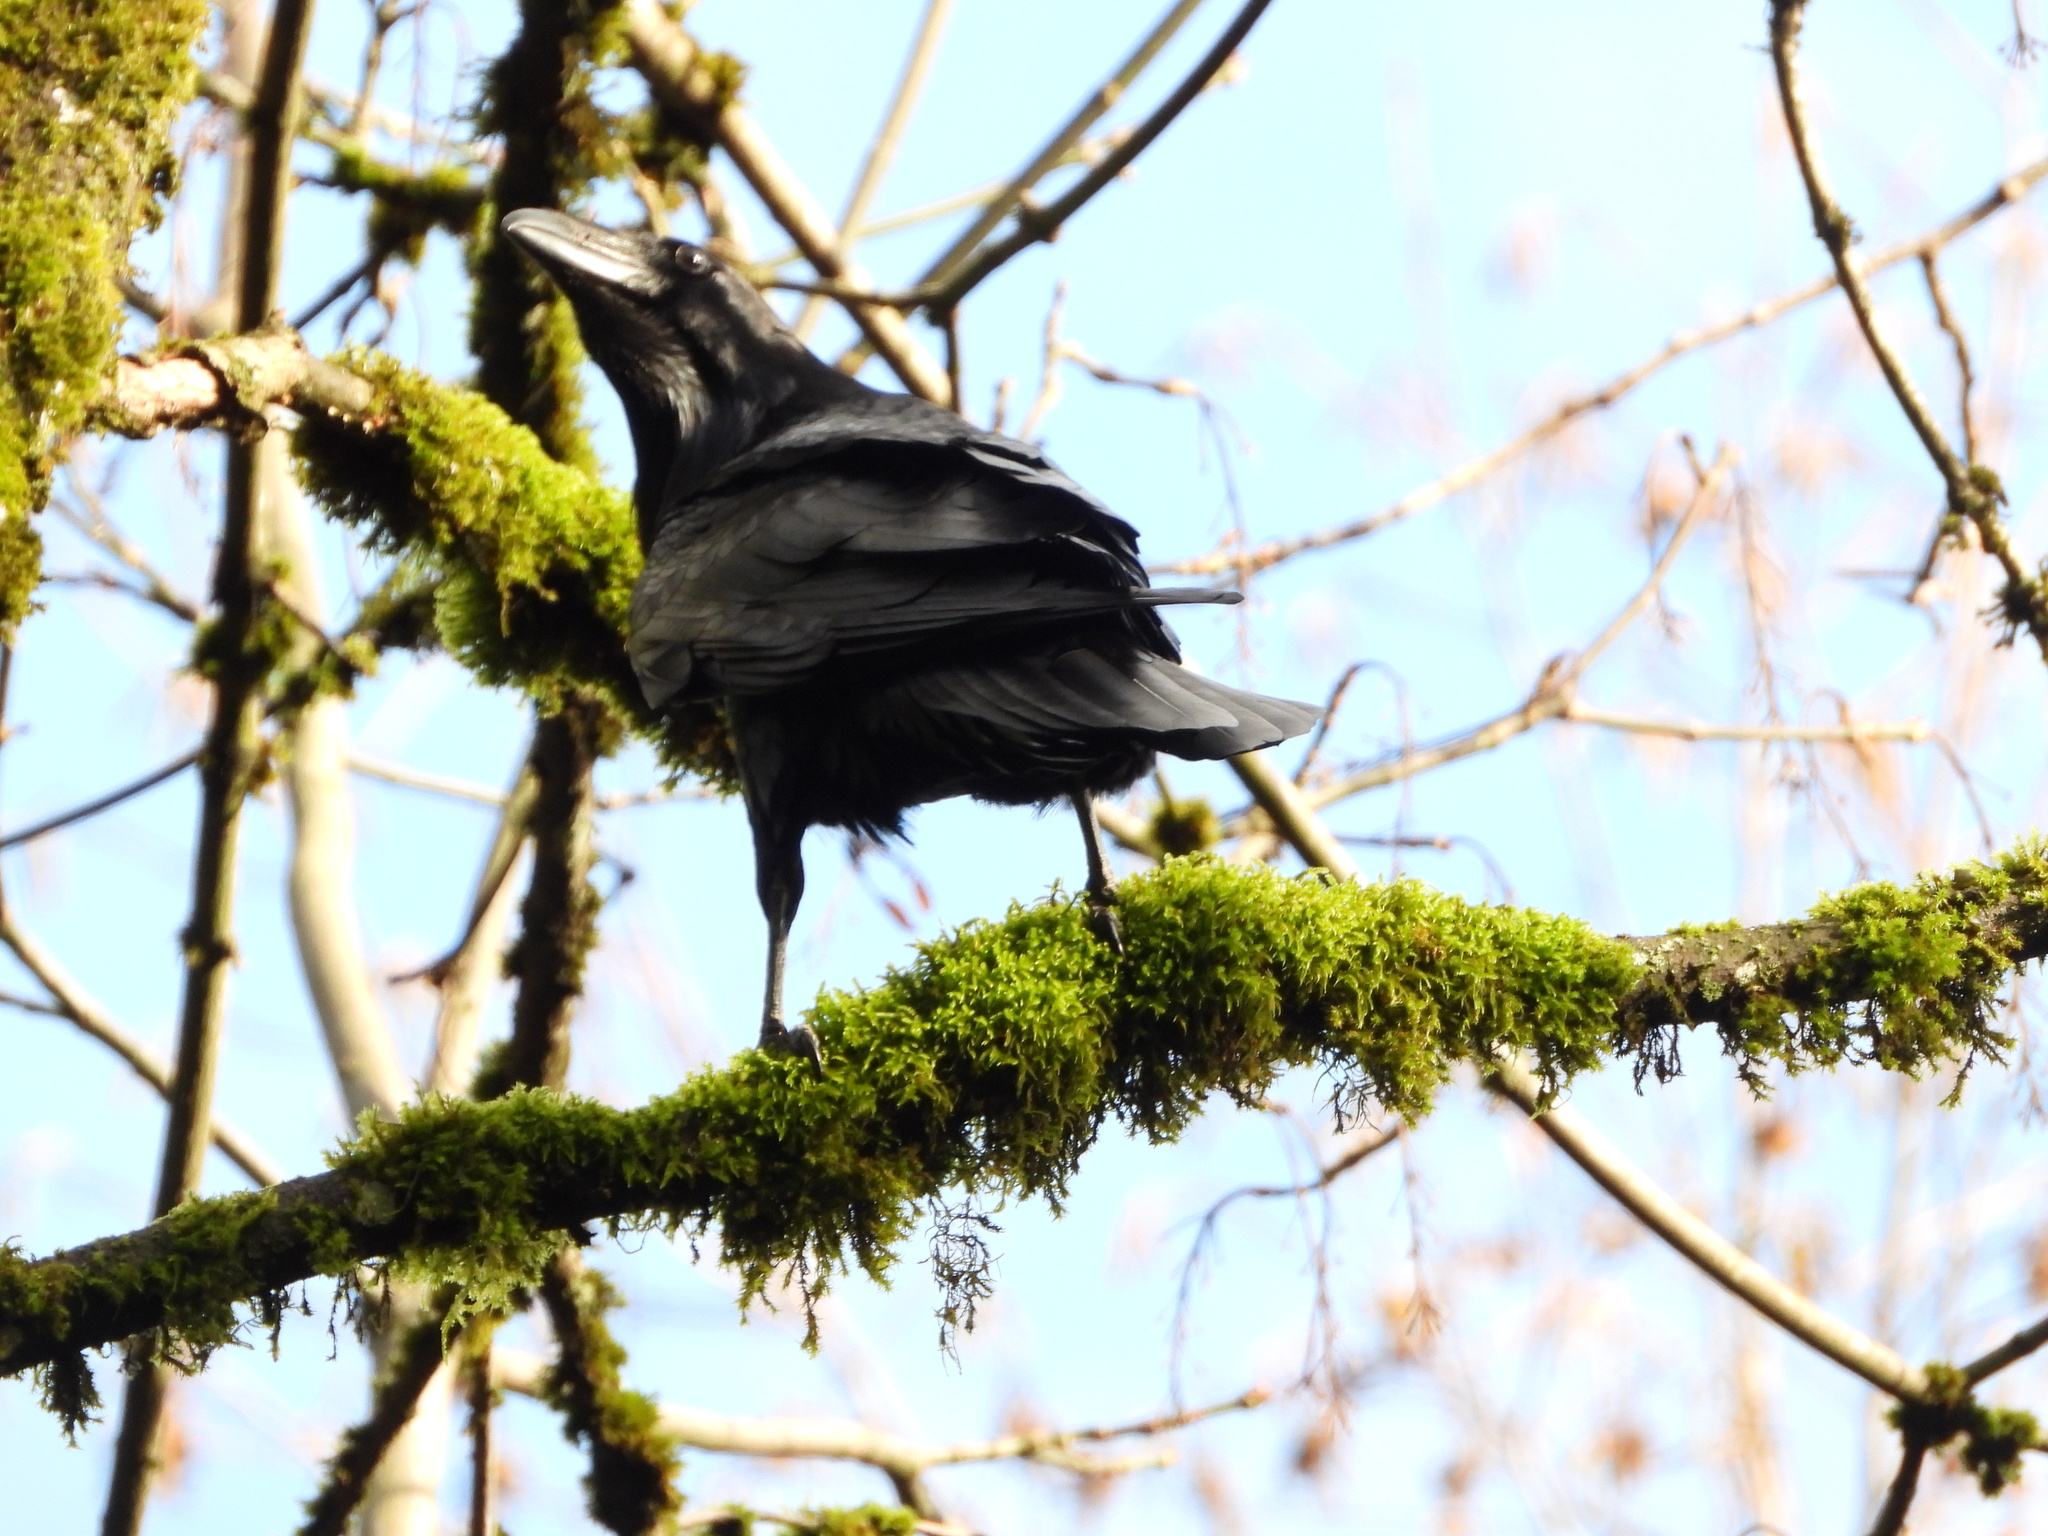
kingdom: Animalia
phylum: Chordata
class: Aves
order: Passeriformes
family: Corvidae
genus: Corvus
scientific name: Corvus corax
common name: Common raven
